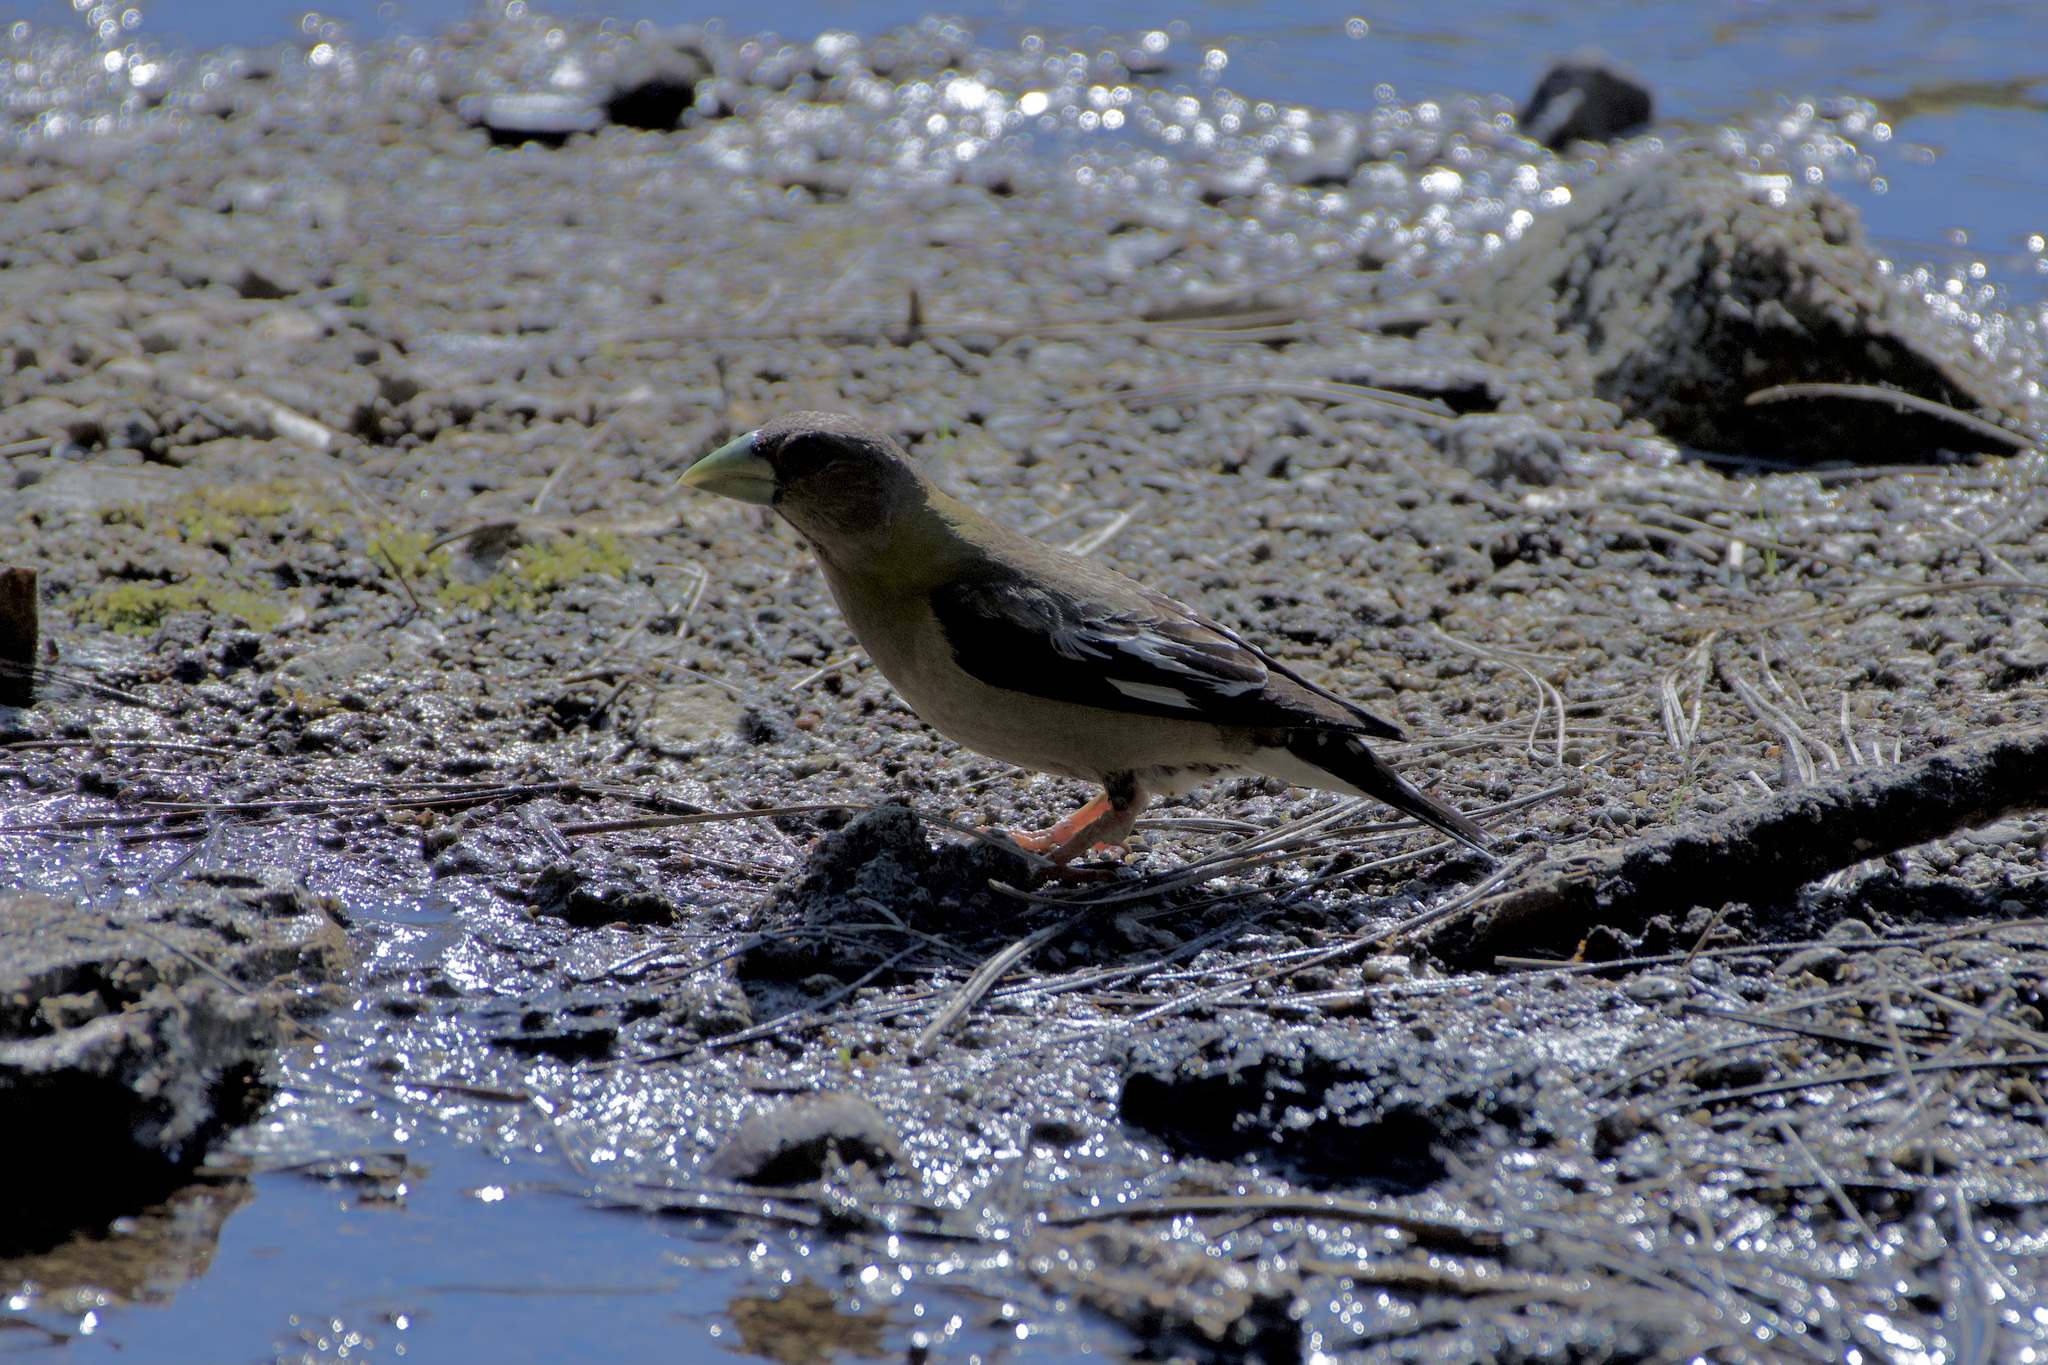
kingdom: Animalia
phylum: Chordata
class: Aves
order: Passeriformes
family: Fringillidae
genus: Hesperiphona
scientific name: Hesperiphona vespertina
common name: Evening grosbeak
